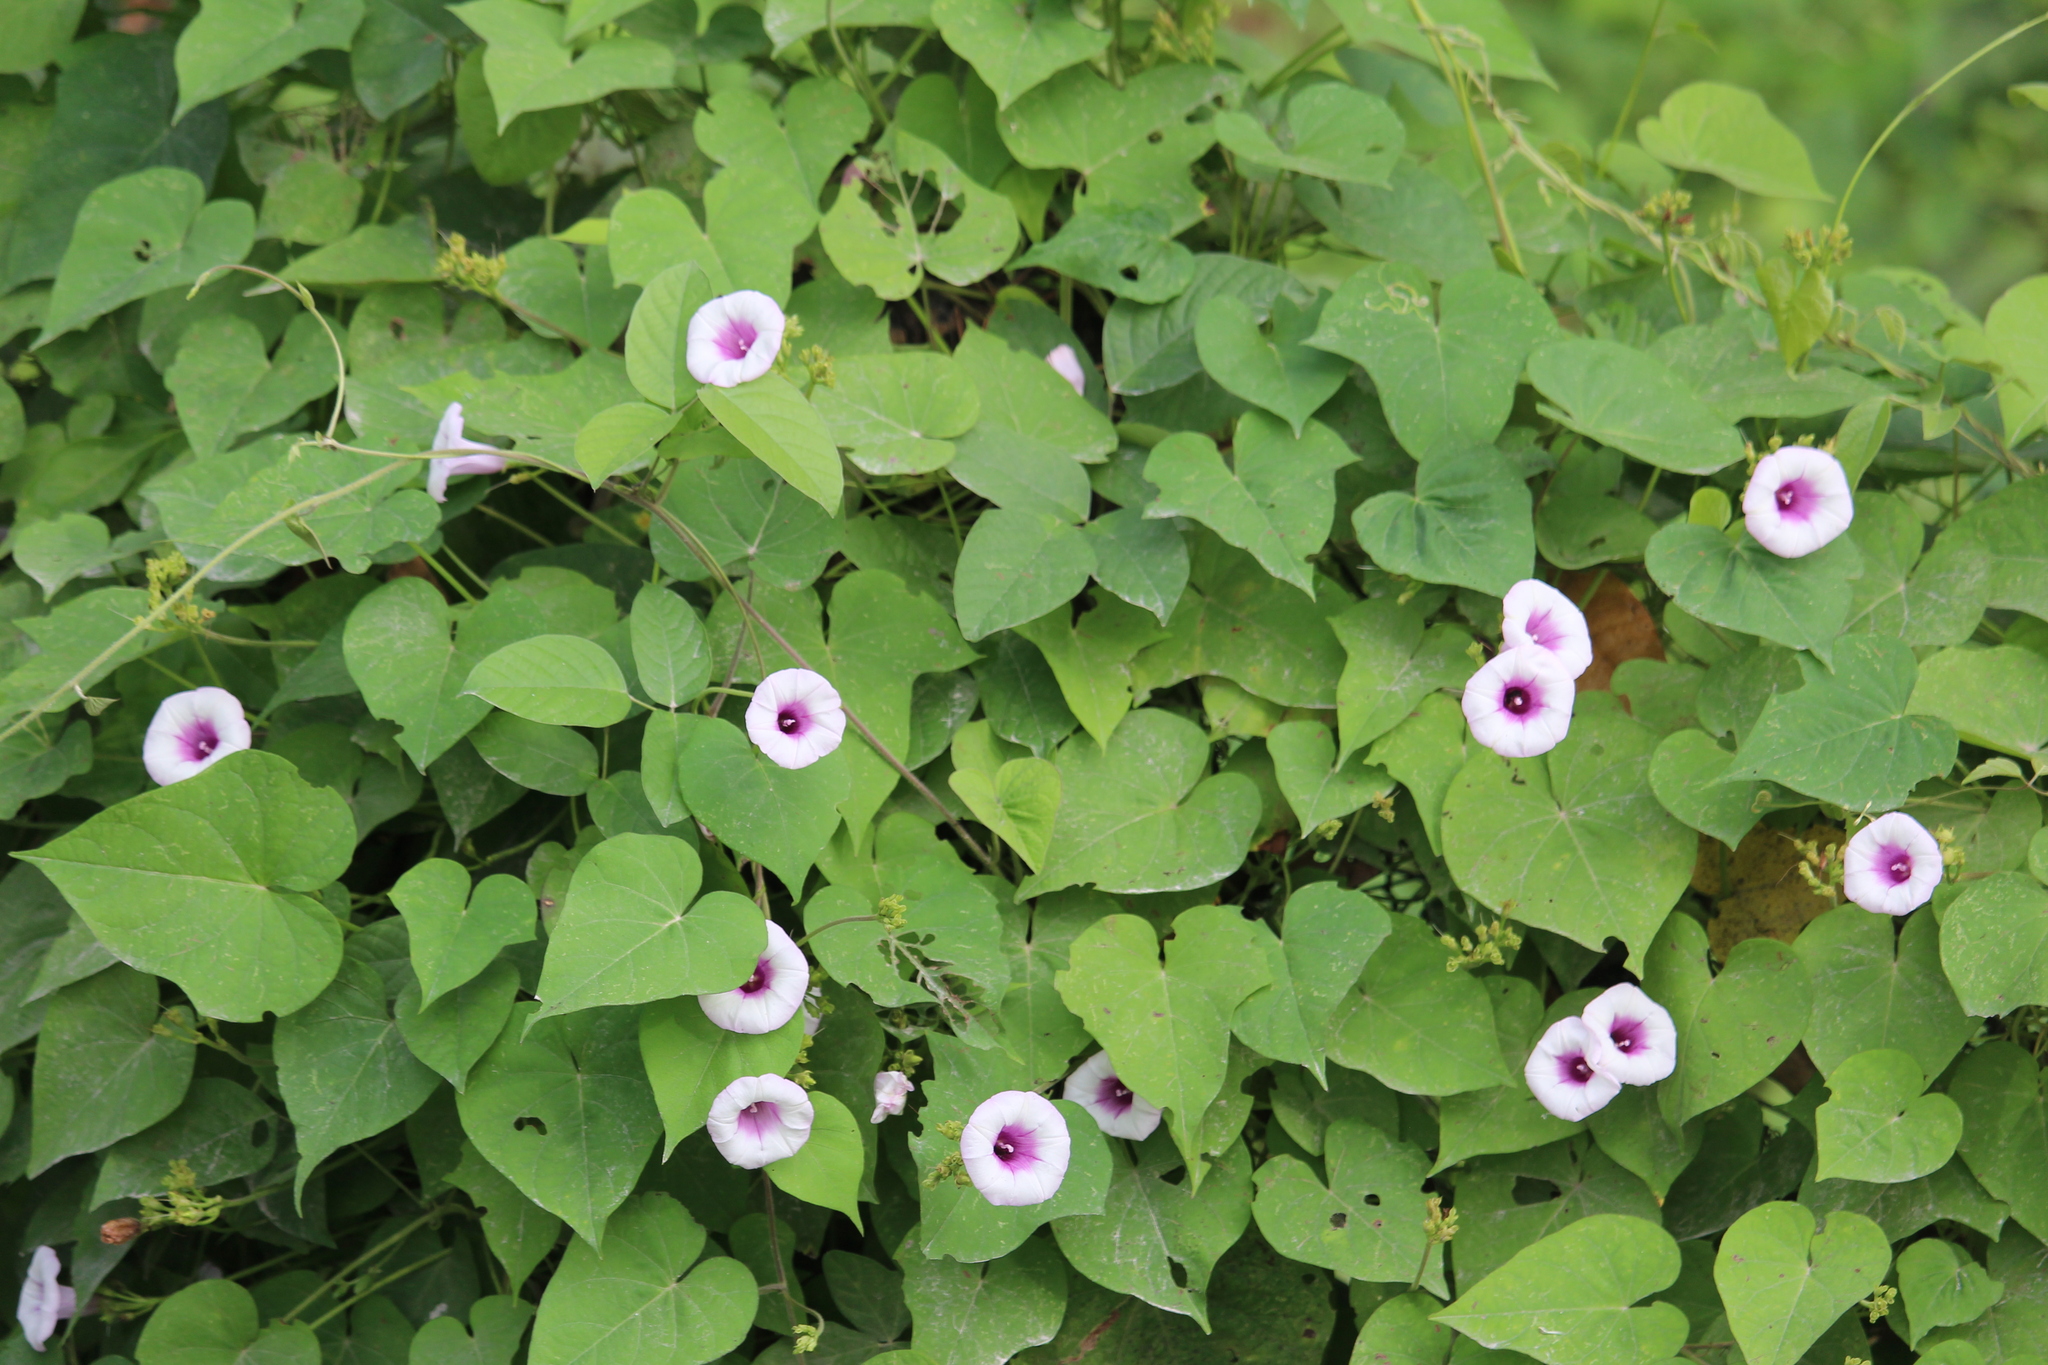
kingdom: Plantae
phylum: Tracheophyta
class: Magnoliopsida
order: Solanales
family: Convolvulaceae
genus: Ipomoea
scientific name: Ipomoea batatas
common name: Sweet-potato
